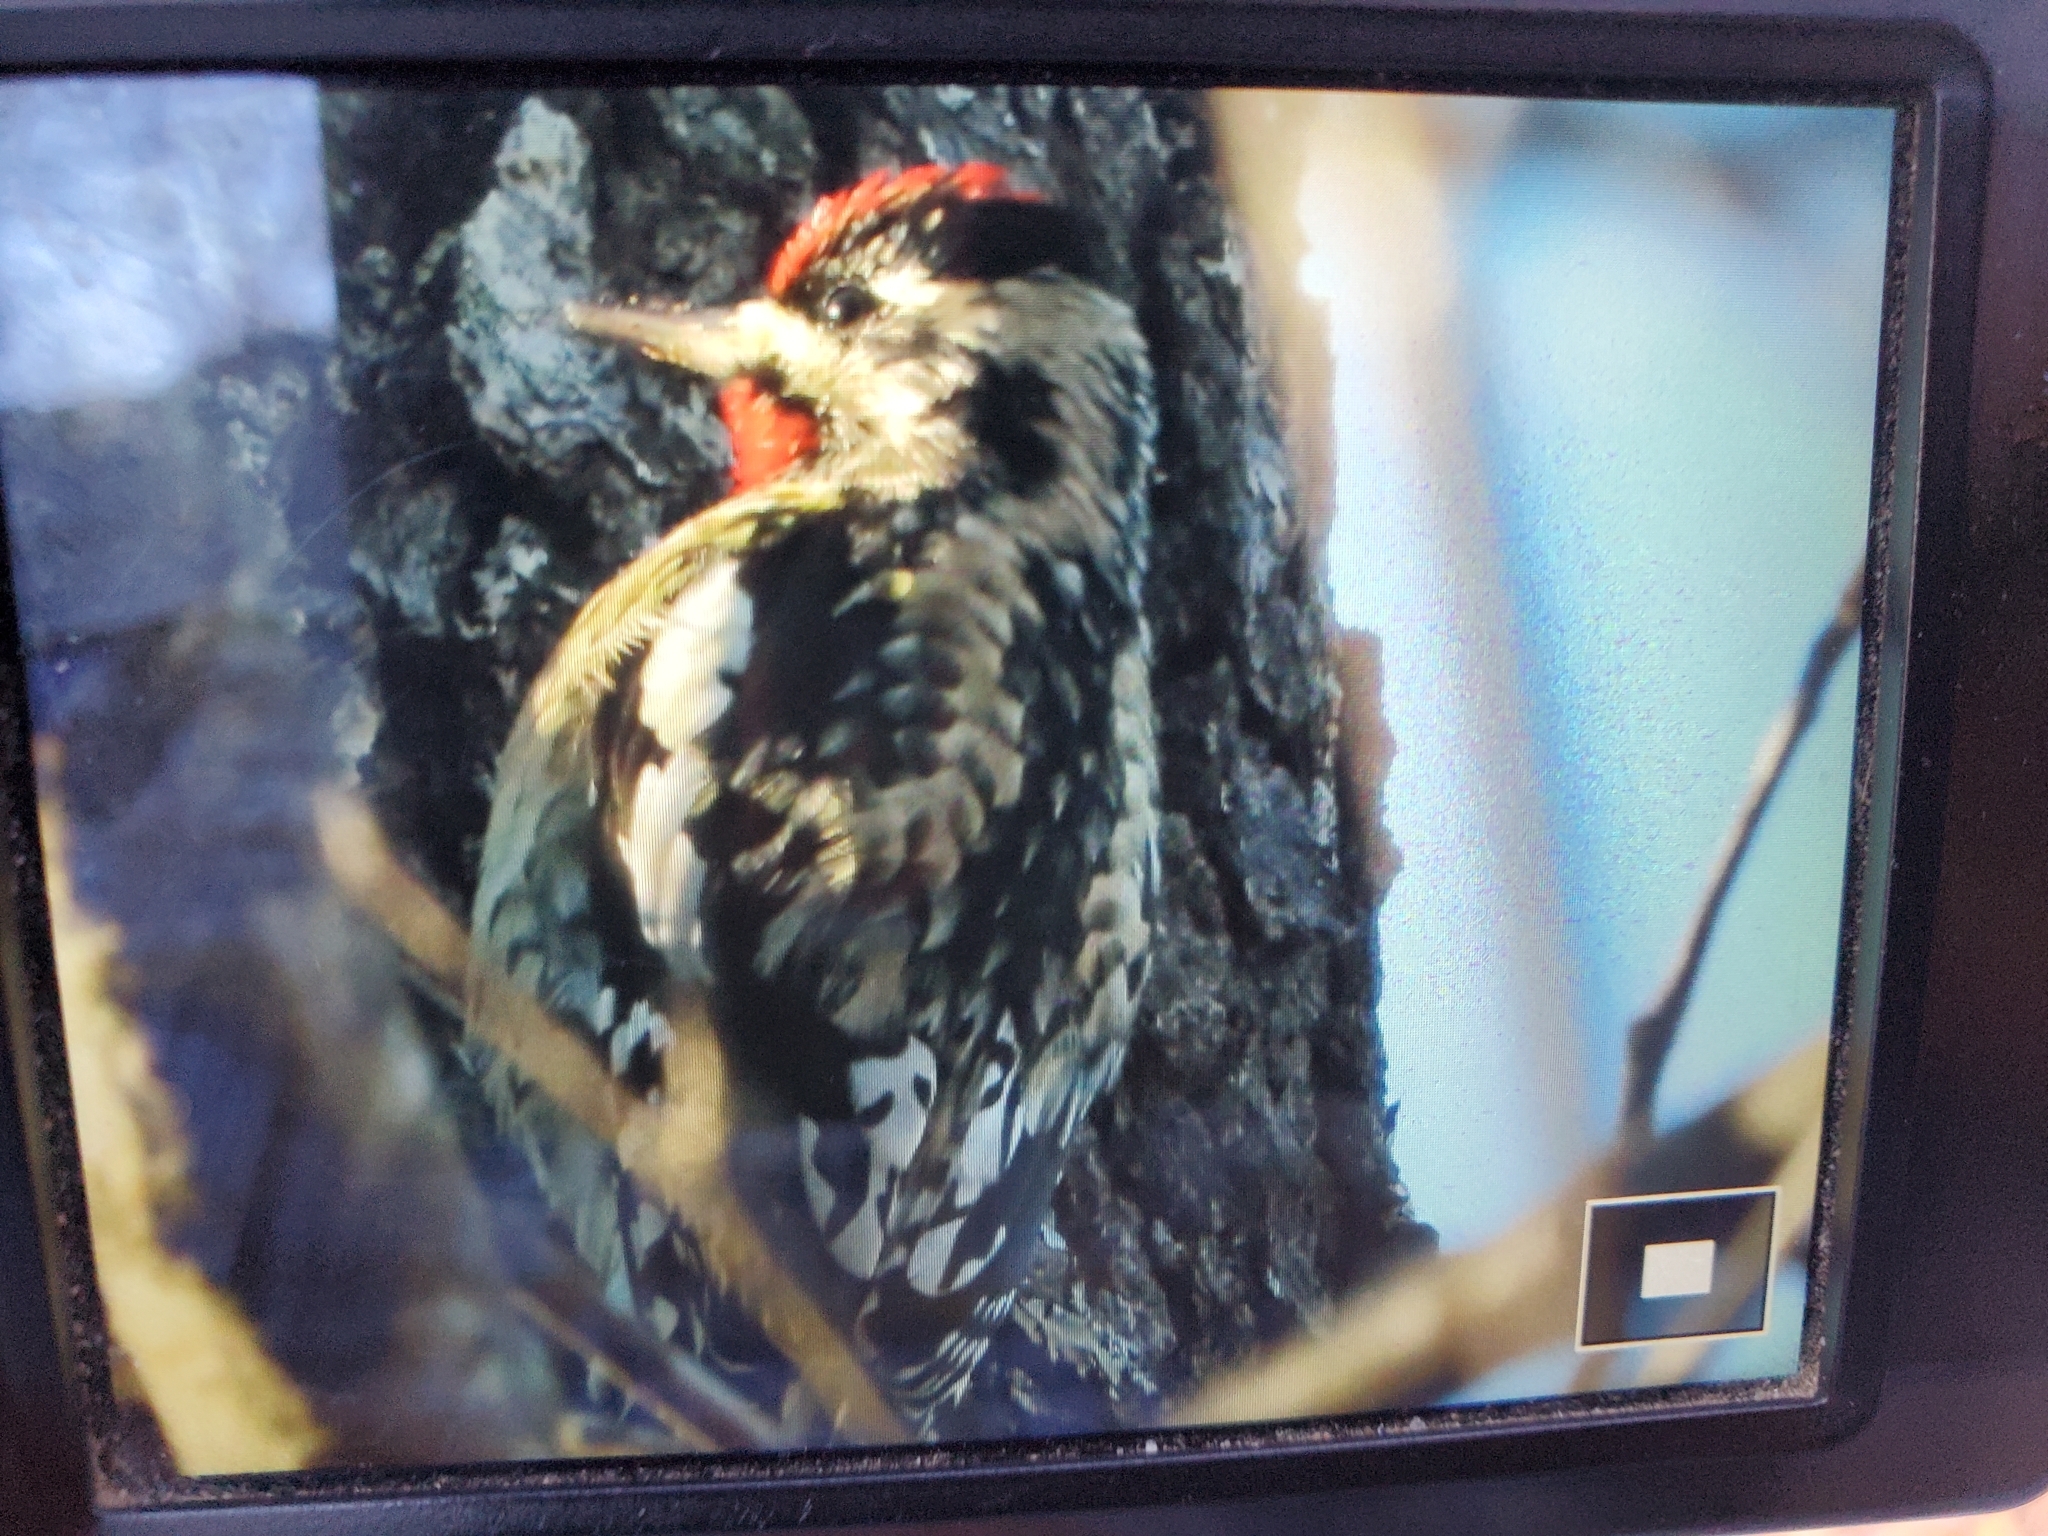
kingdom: Animalia
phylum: Chordata
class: Aves
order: Piciformes
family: Picidae
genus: Sphyrapicus
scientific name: Sphyrapicus varius
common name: Yellow-bellied sapsucker
